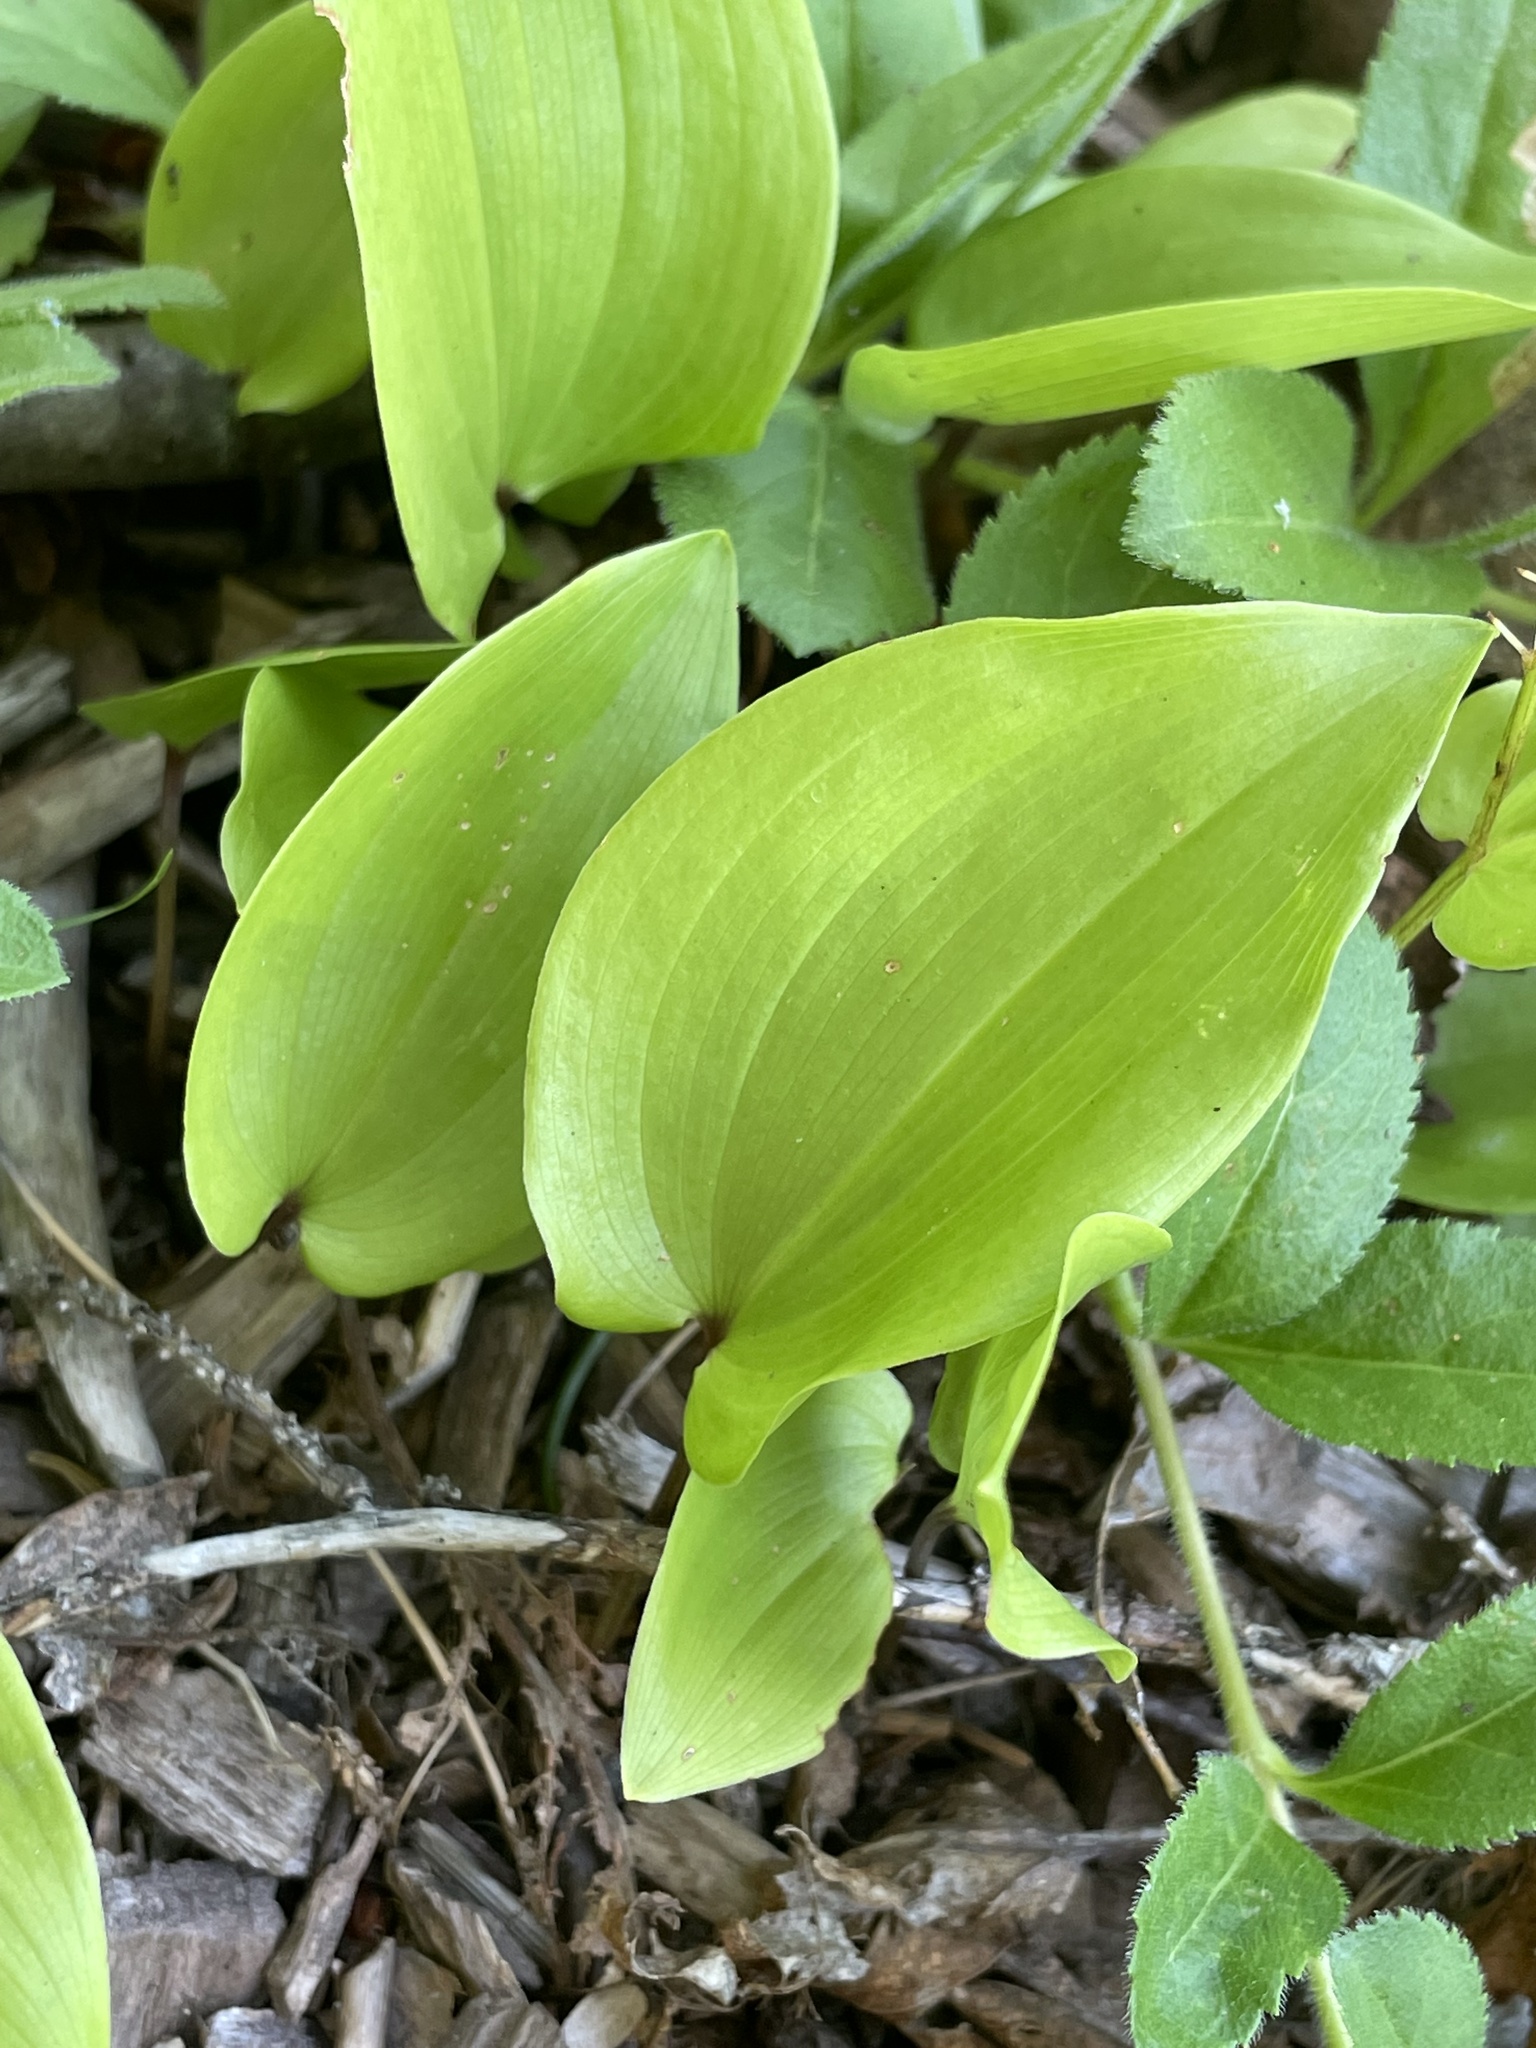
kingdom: Plantae
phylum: Tracheophyta
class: Liliopsida
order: Asparagales
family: Asparagaceae
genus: Maianthemum
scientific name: Maianthemum canadense
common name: False lily-of-the-valley
